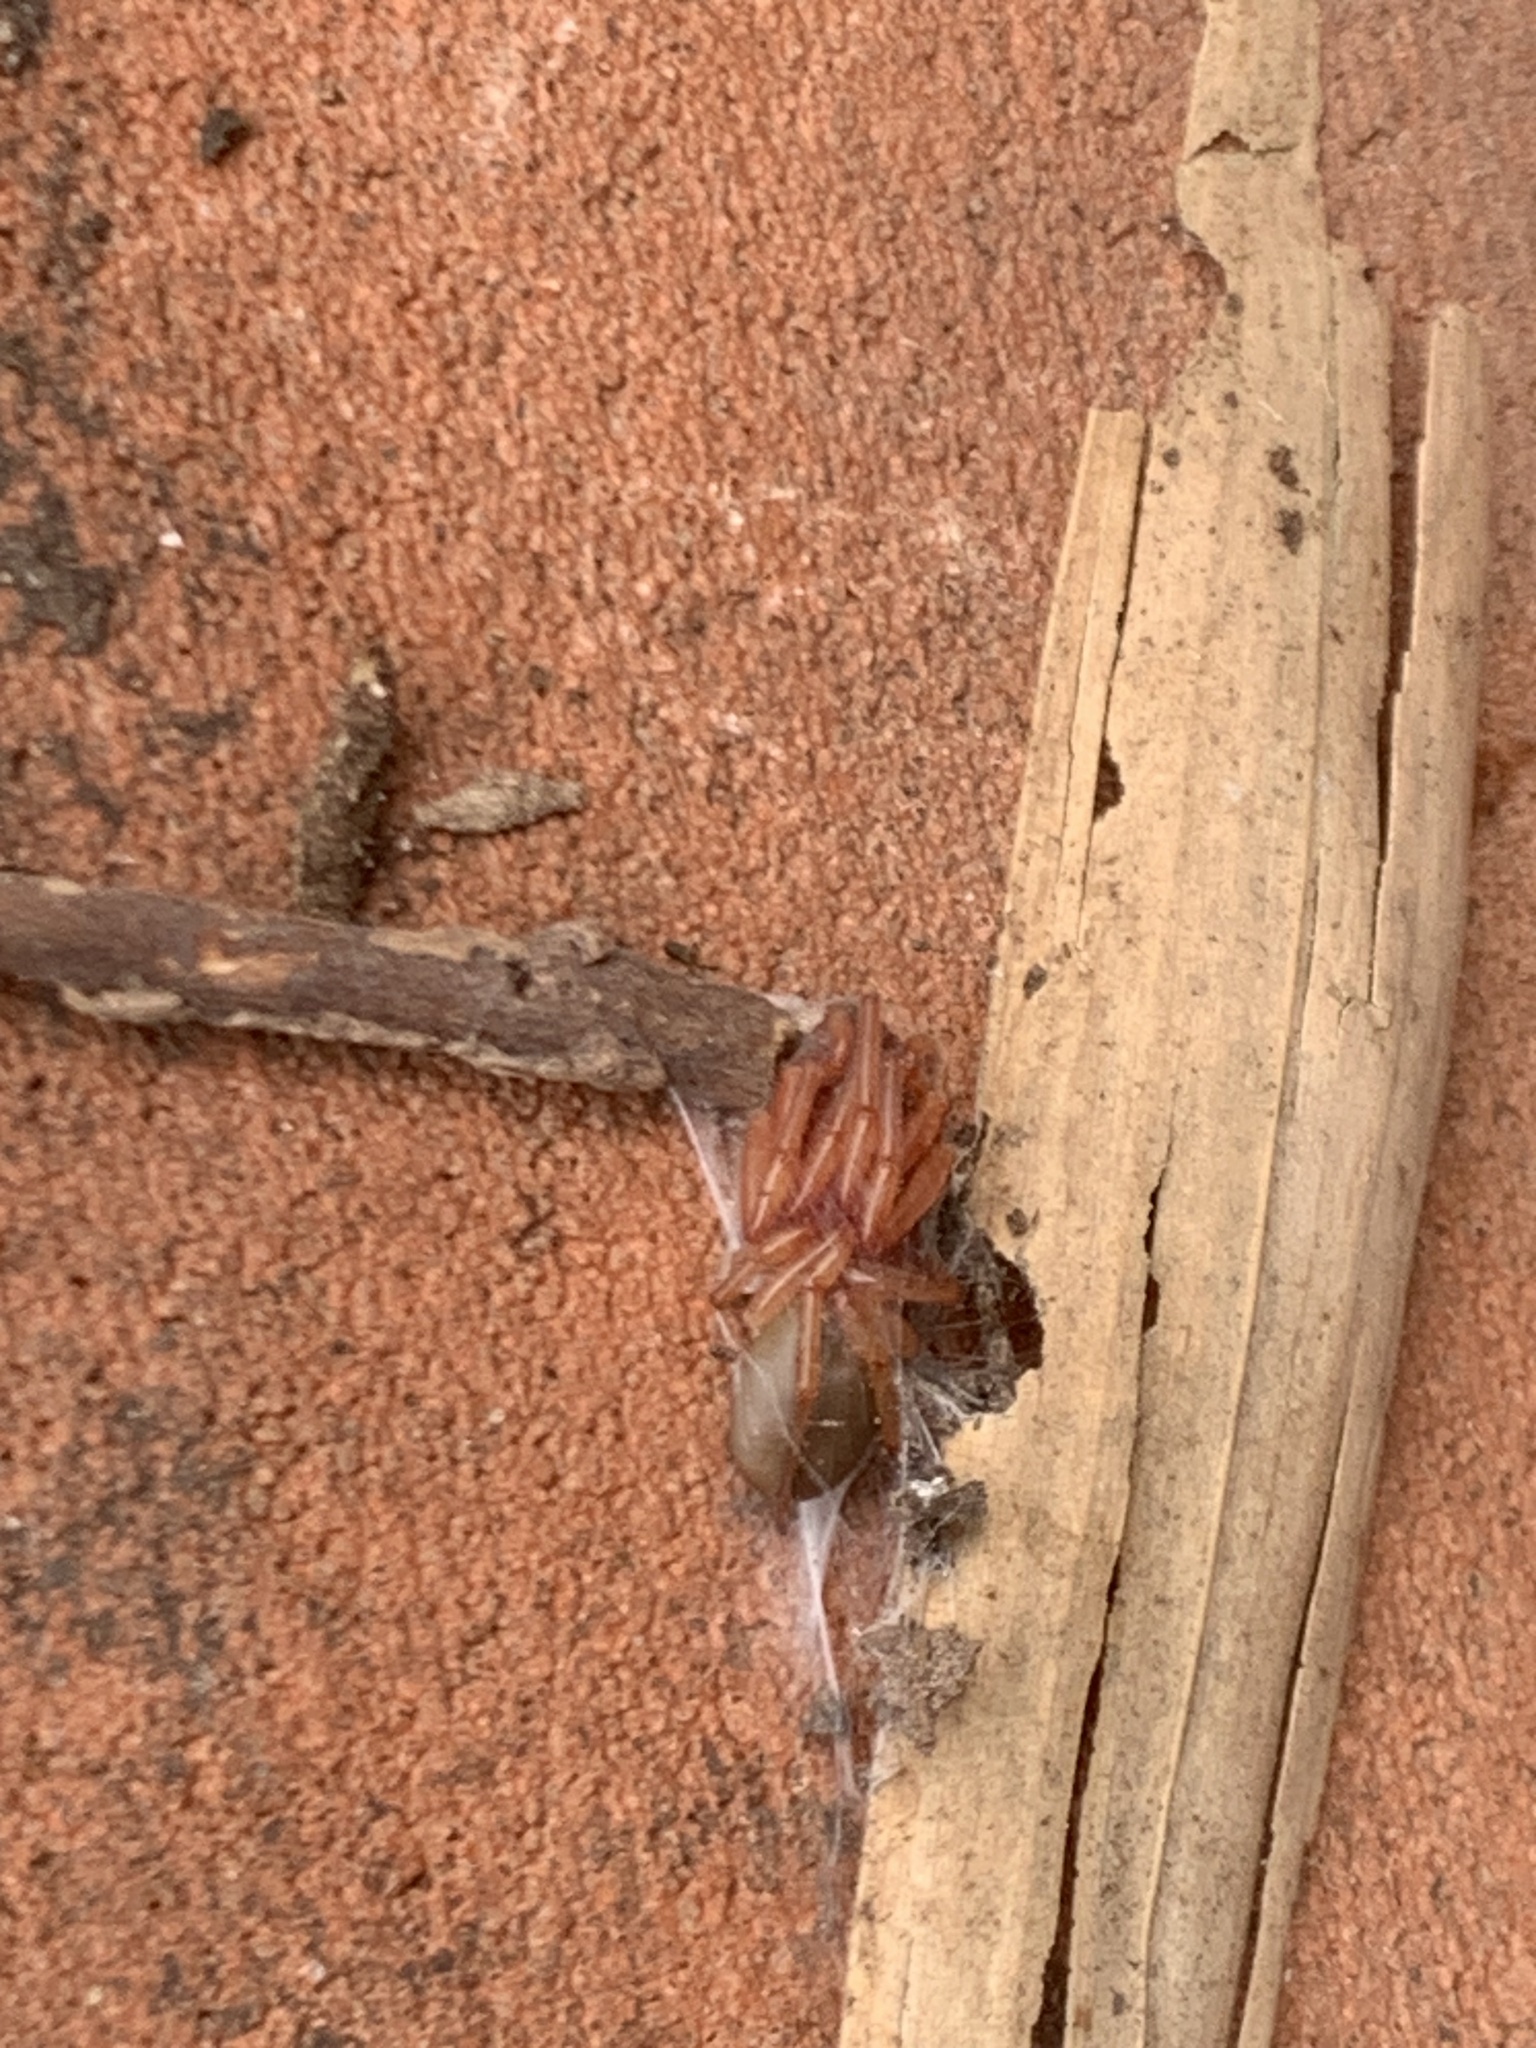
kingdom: Animalia
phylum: Arthropoda
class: Arachnida
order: Araneae
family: Dysderidae
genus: Dysdera
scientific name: Dysdera crocata
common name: Woodlouse spider
